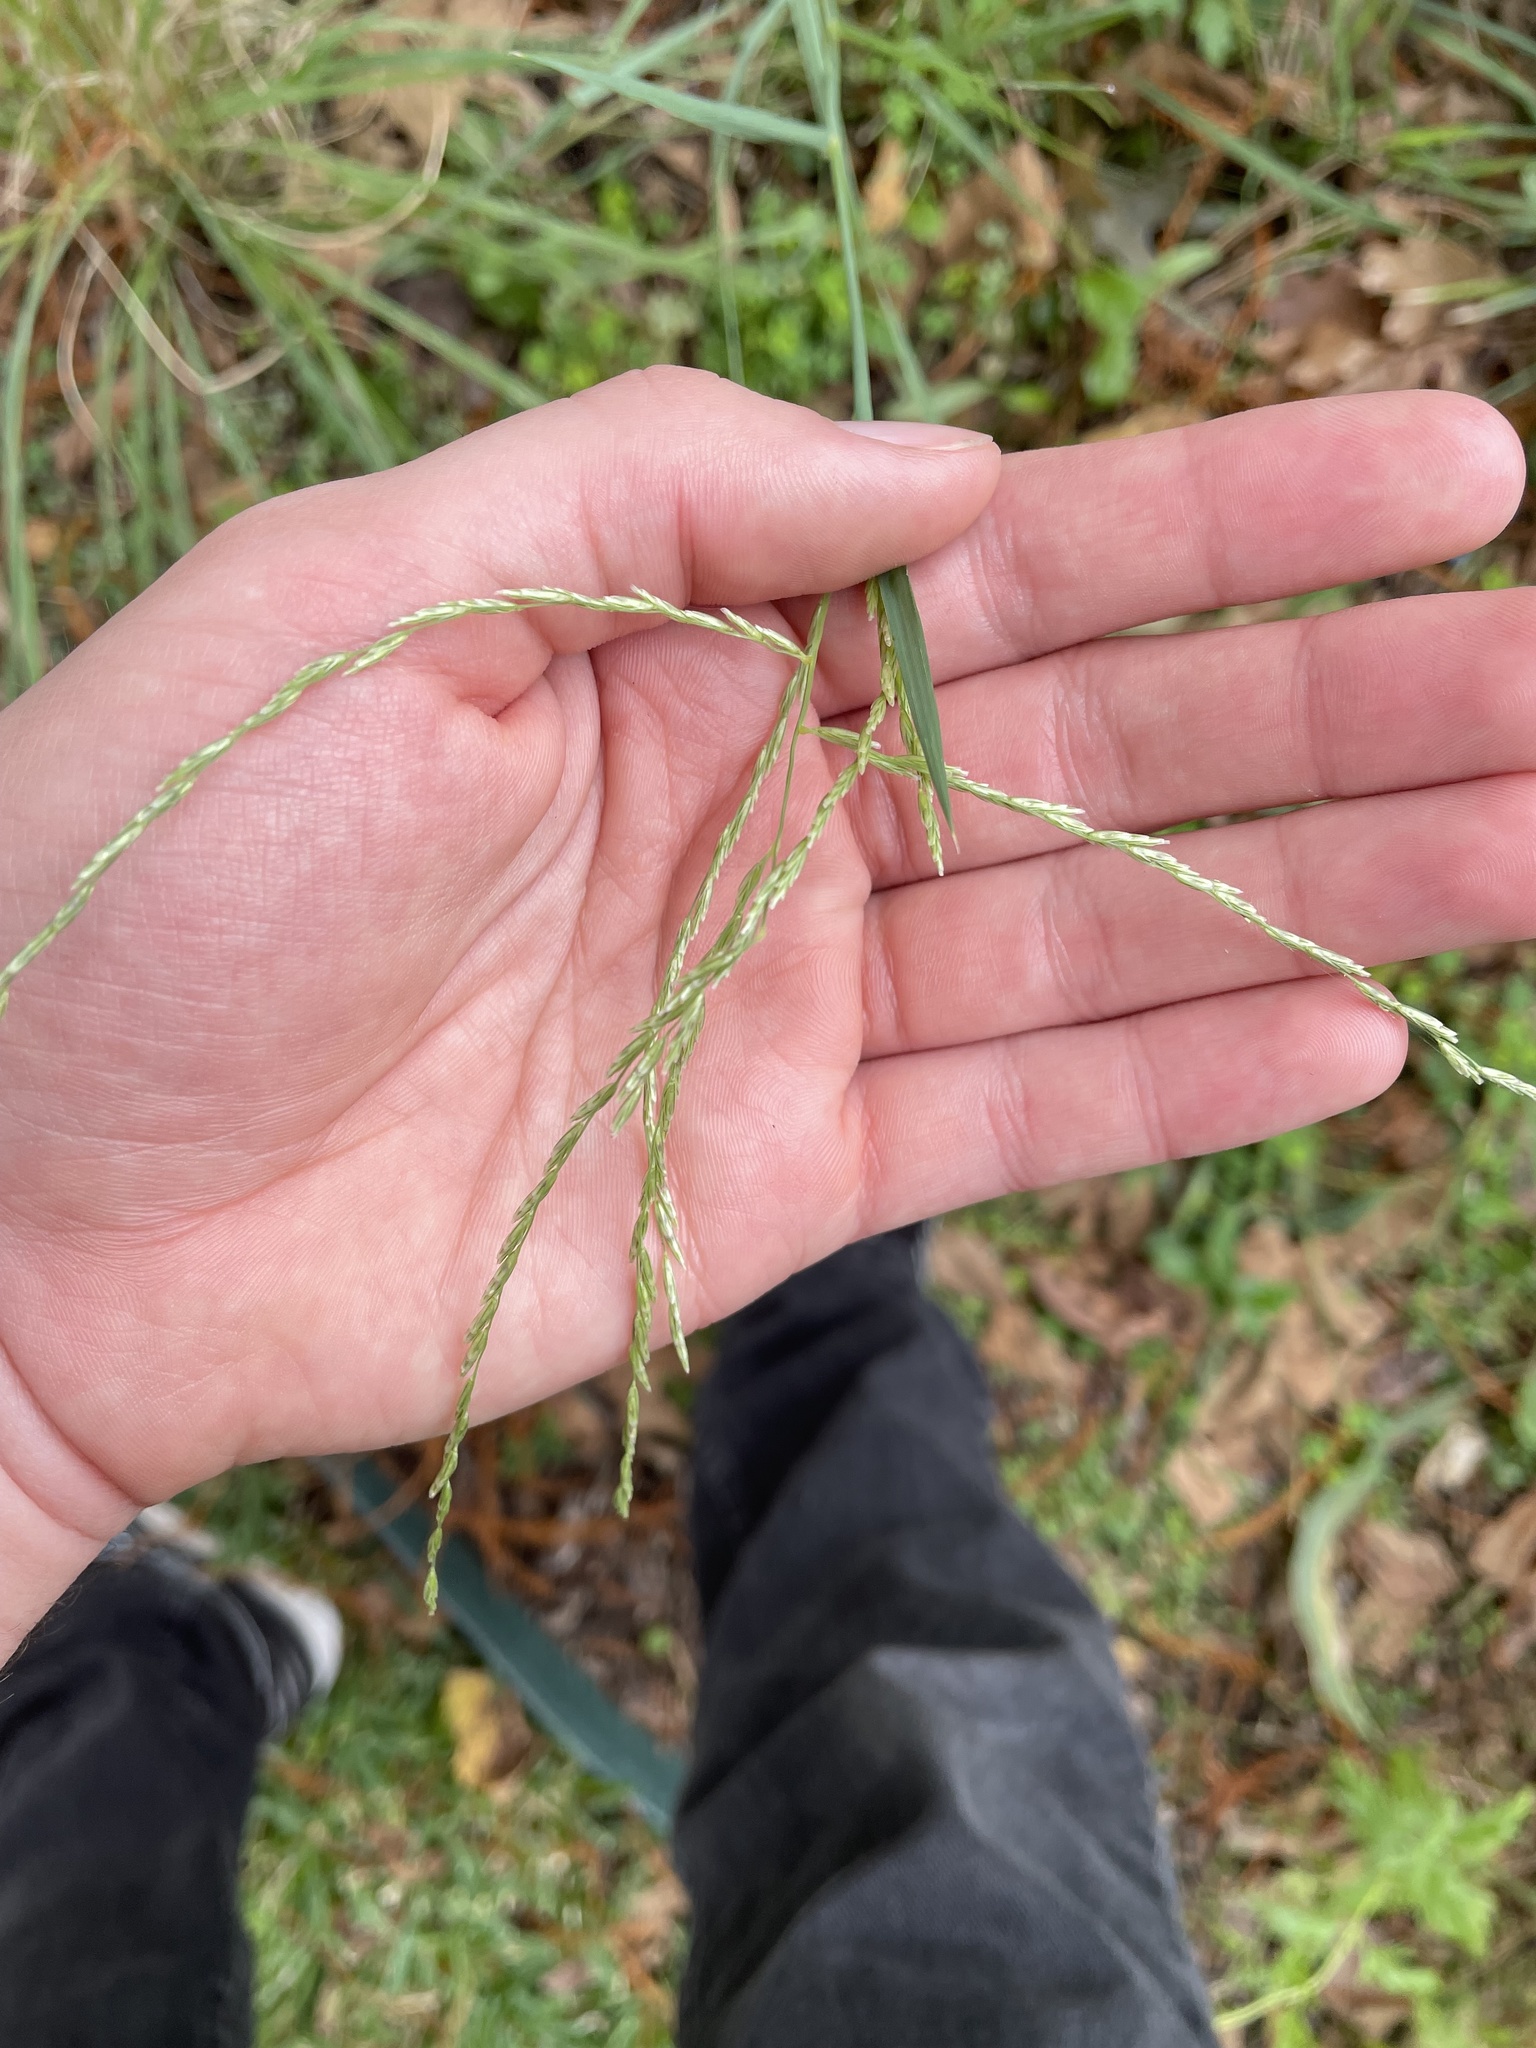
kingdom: Plantae
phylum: Tracheophyta
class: Liliopsida
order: Poales
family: Poaceae
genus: Disakisperma
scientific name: Disakisperma dubium
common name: Green sprangletop
